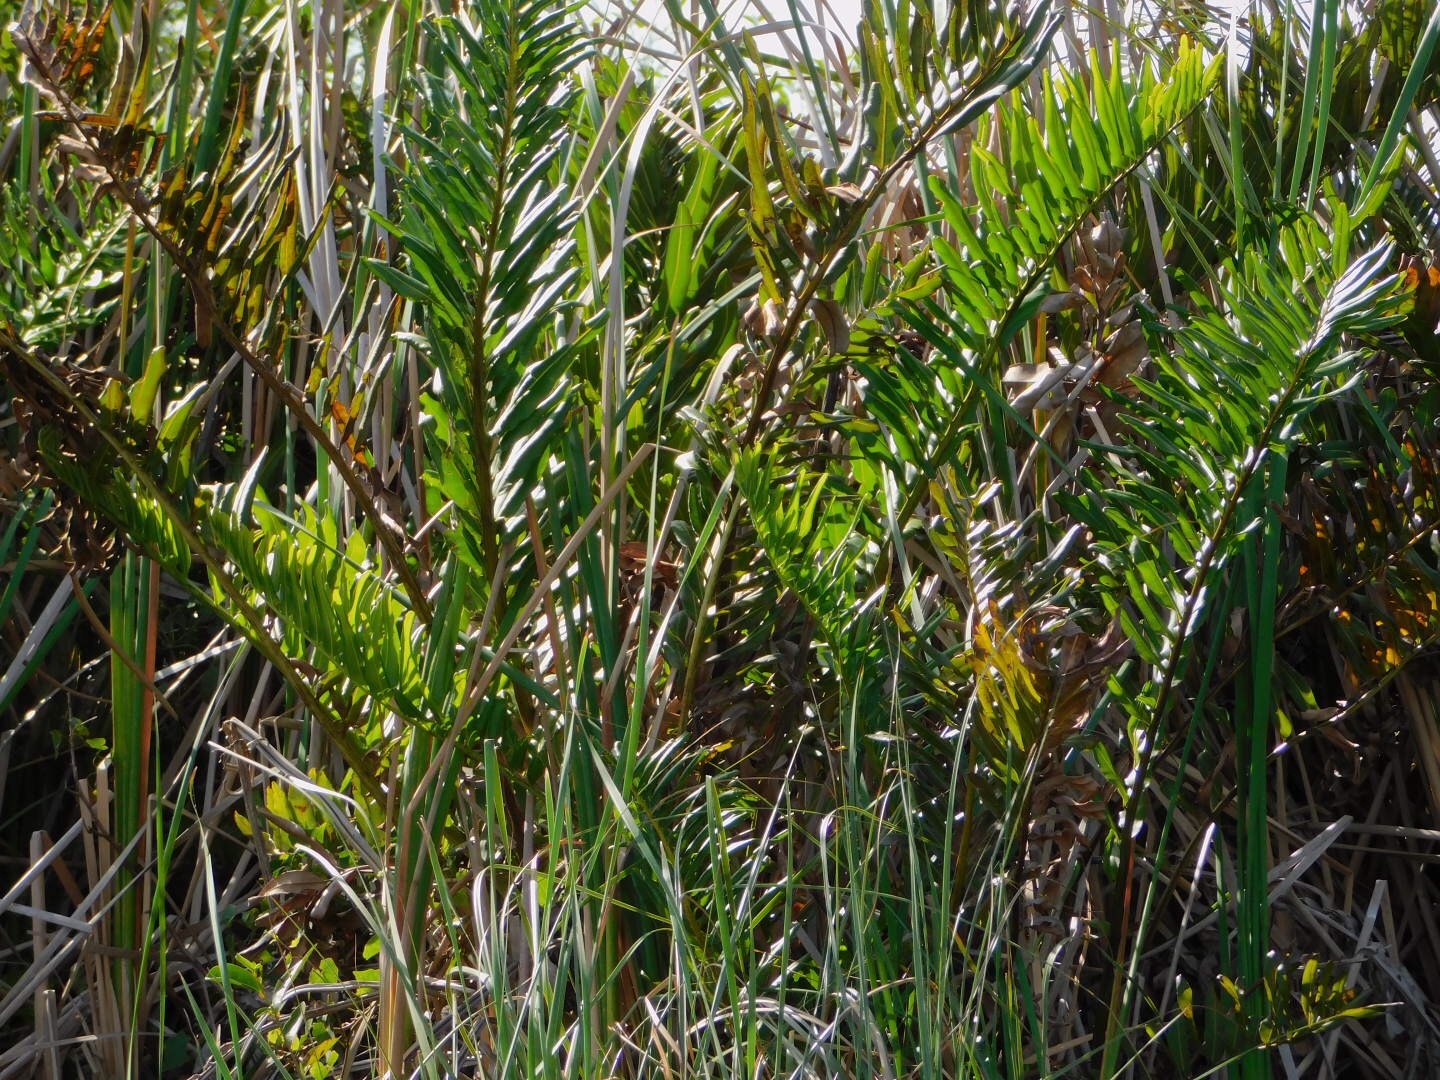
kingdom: Plantae
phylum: Tracheophyta
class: Polypodiopsida
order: Polypodiales
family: Pteridaceae
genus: Acrostichum
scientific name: Acrostichum danaeifolium
